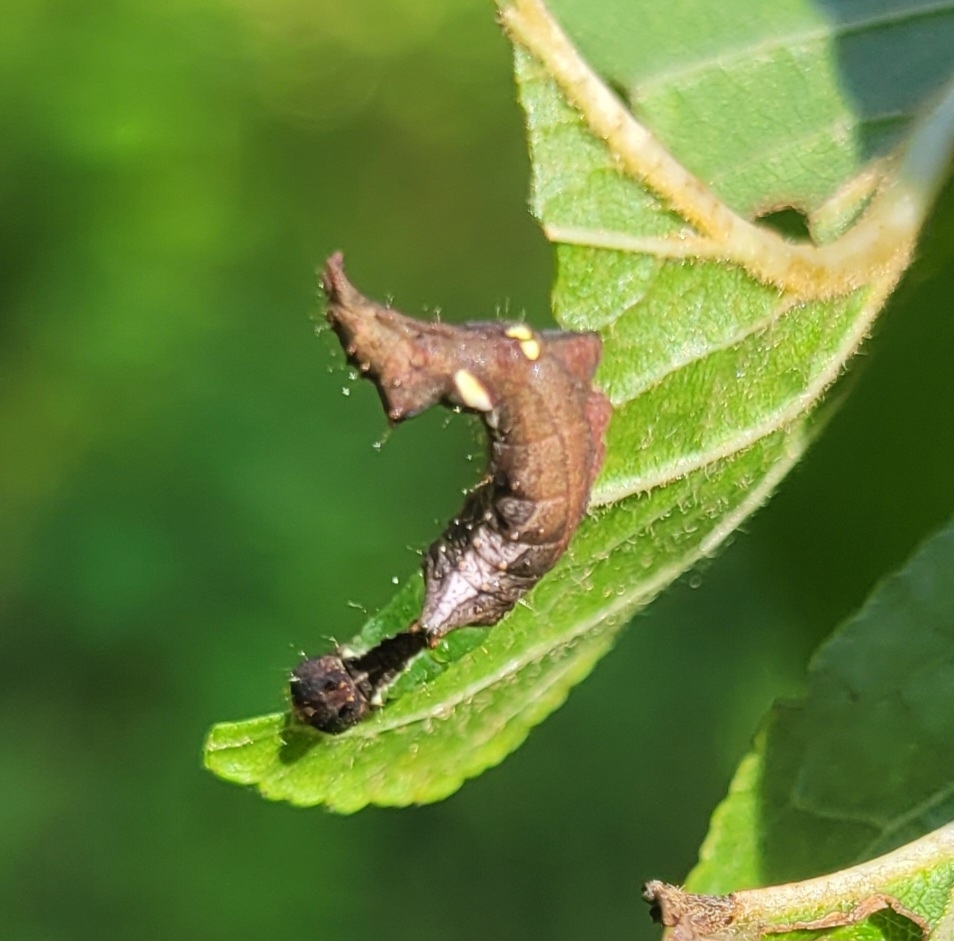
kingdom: Animalia
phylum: Arthropoda
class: Insecta
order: Lepidoptera
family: Notodontidae
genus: Schizura
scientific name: Schizura
